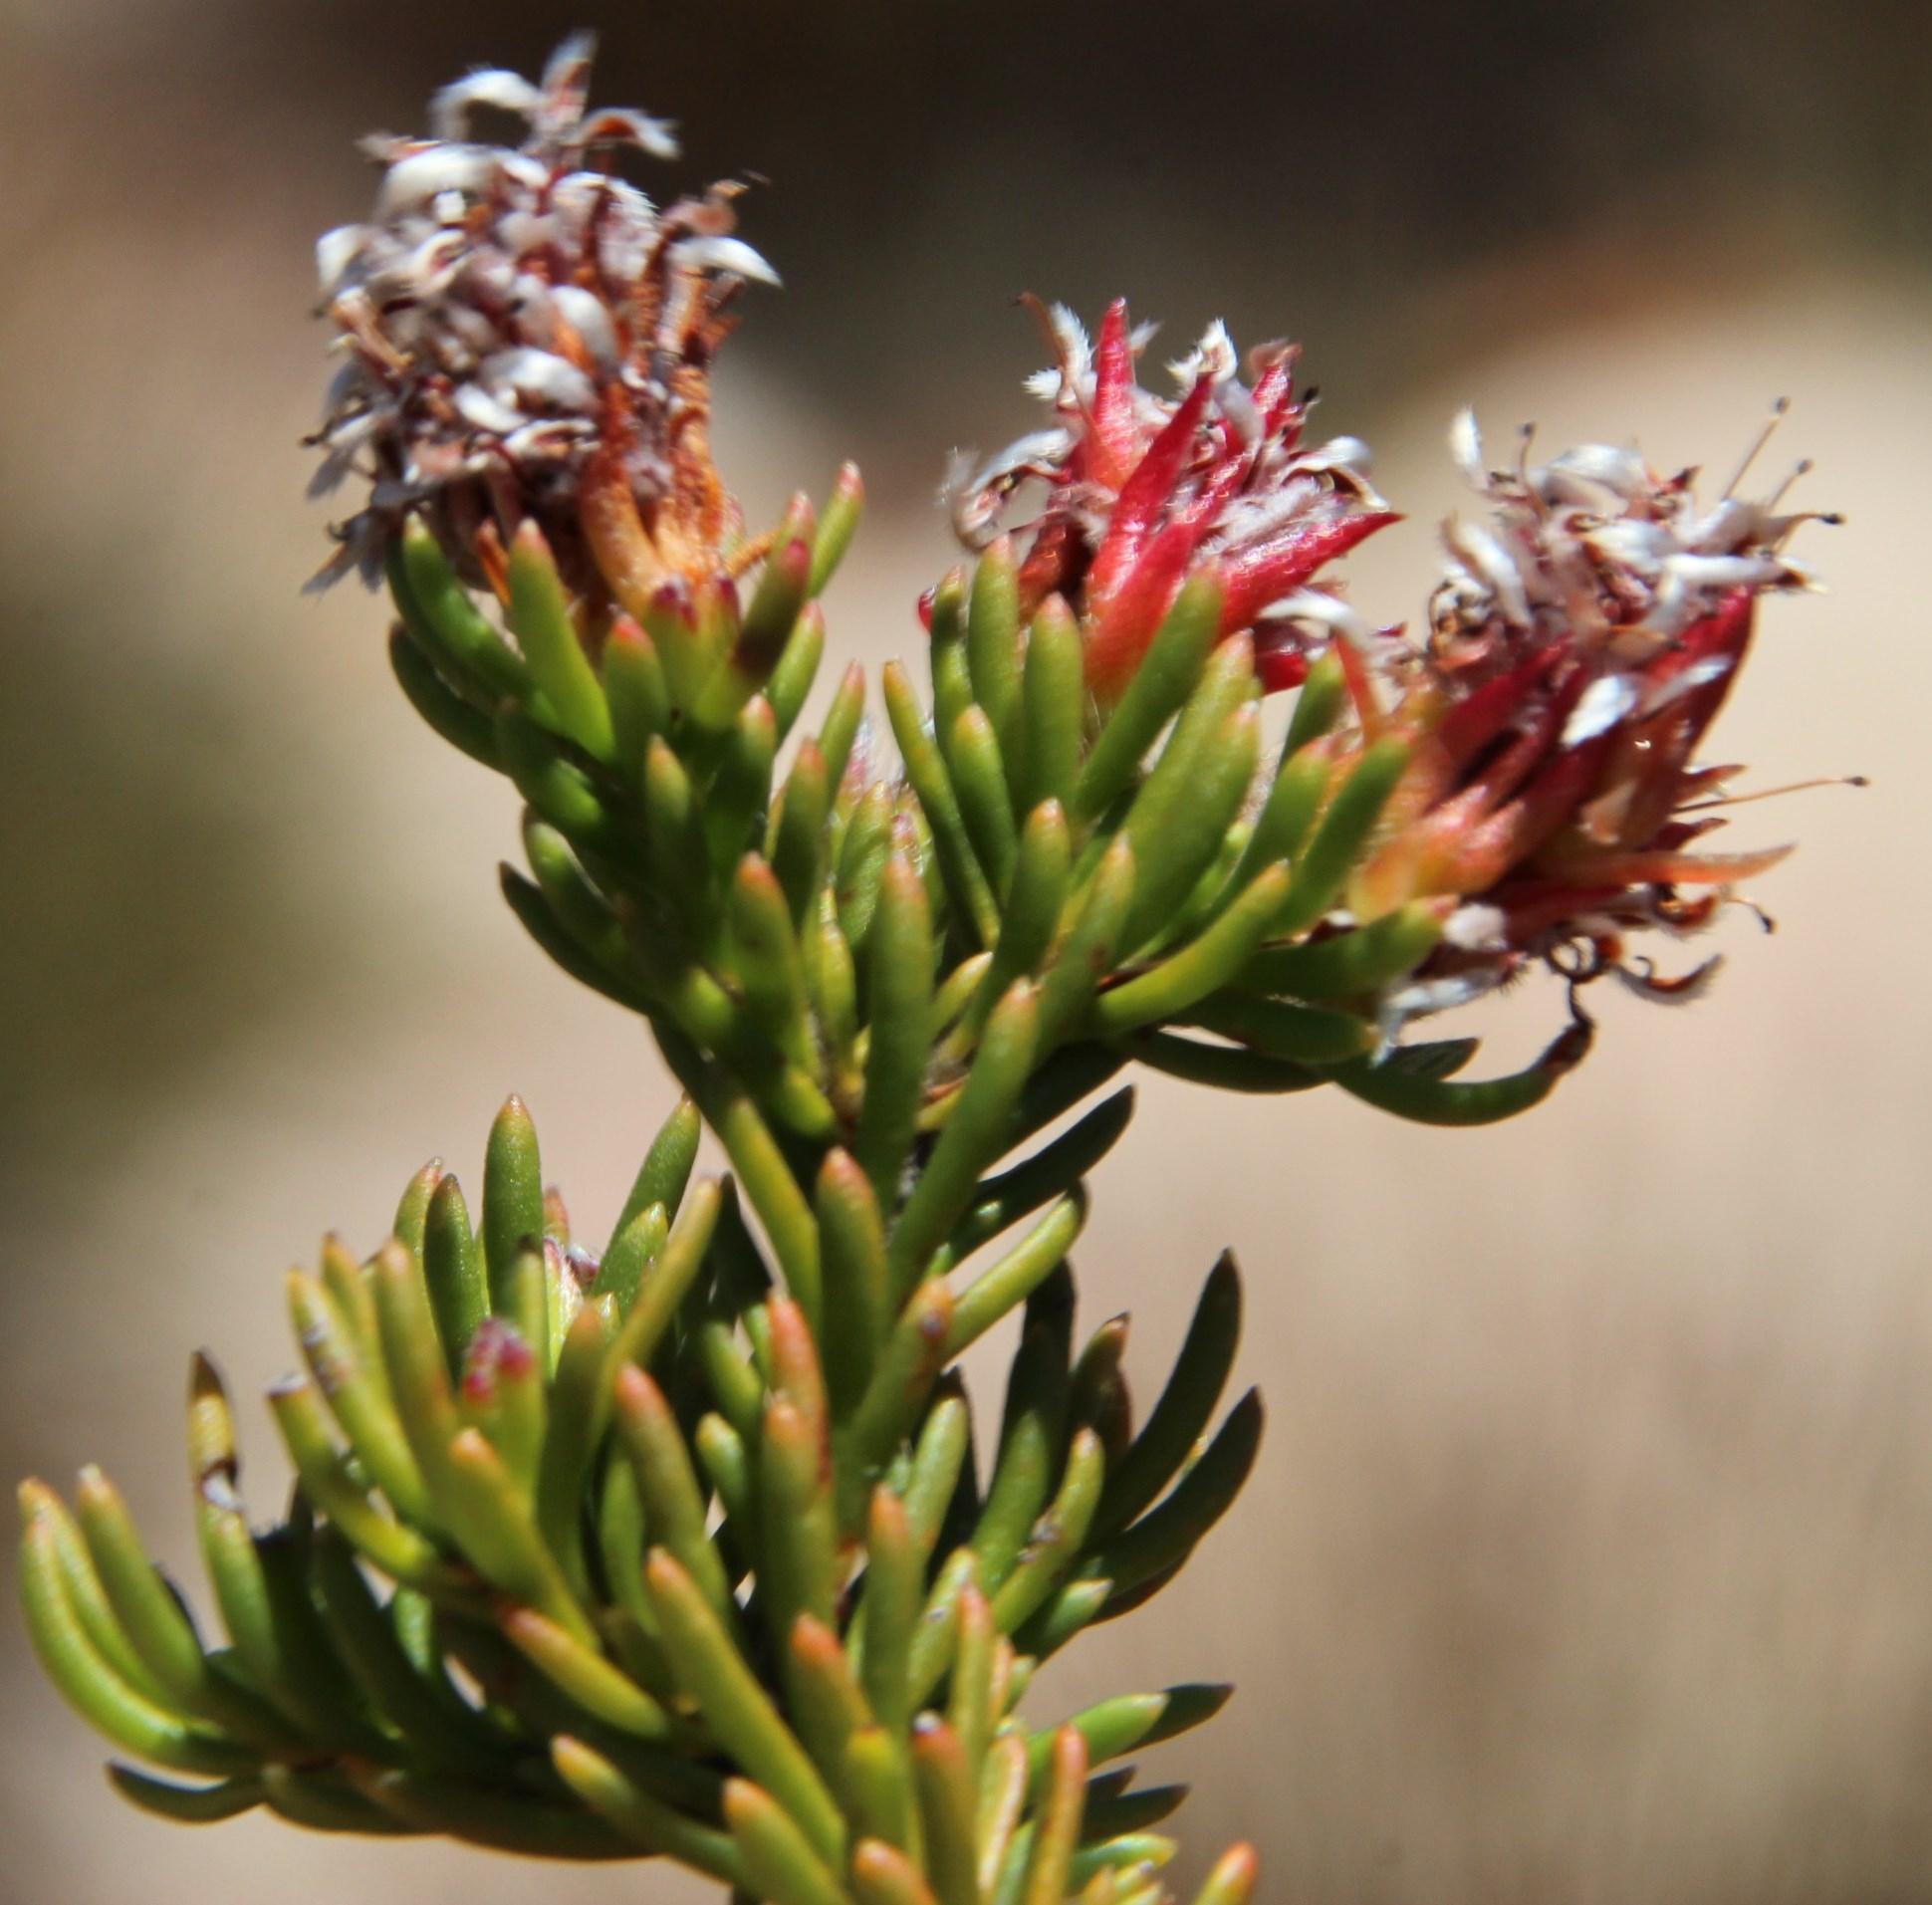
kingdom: Plantae
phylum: Tracheophyta
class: Magnoliopsida
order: Proteales
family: Proteaceae
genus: Spatalla
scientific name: Spatalla confusa
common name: Long-tube spoon
